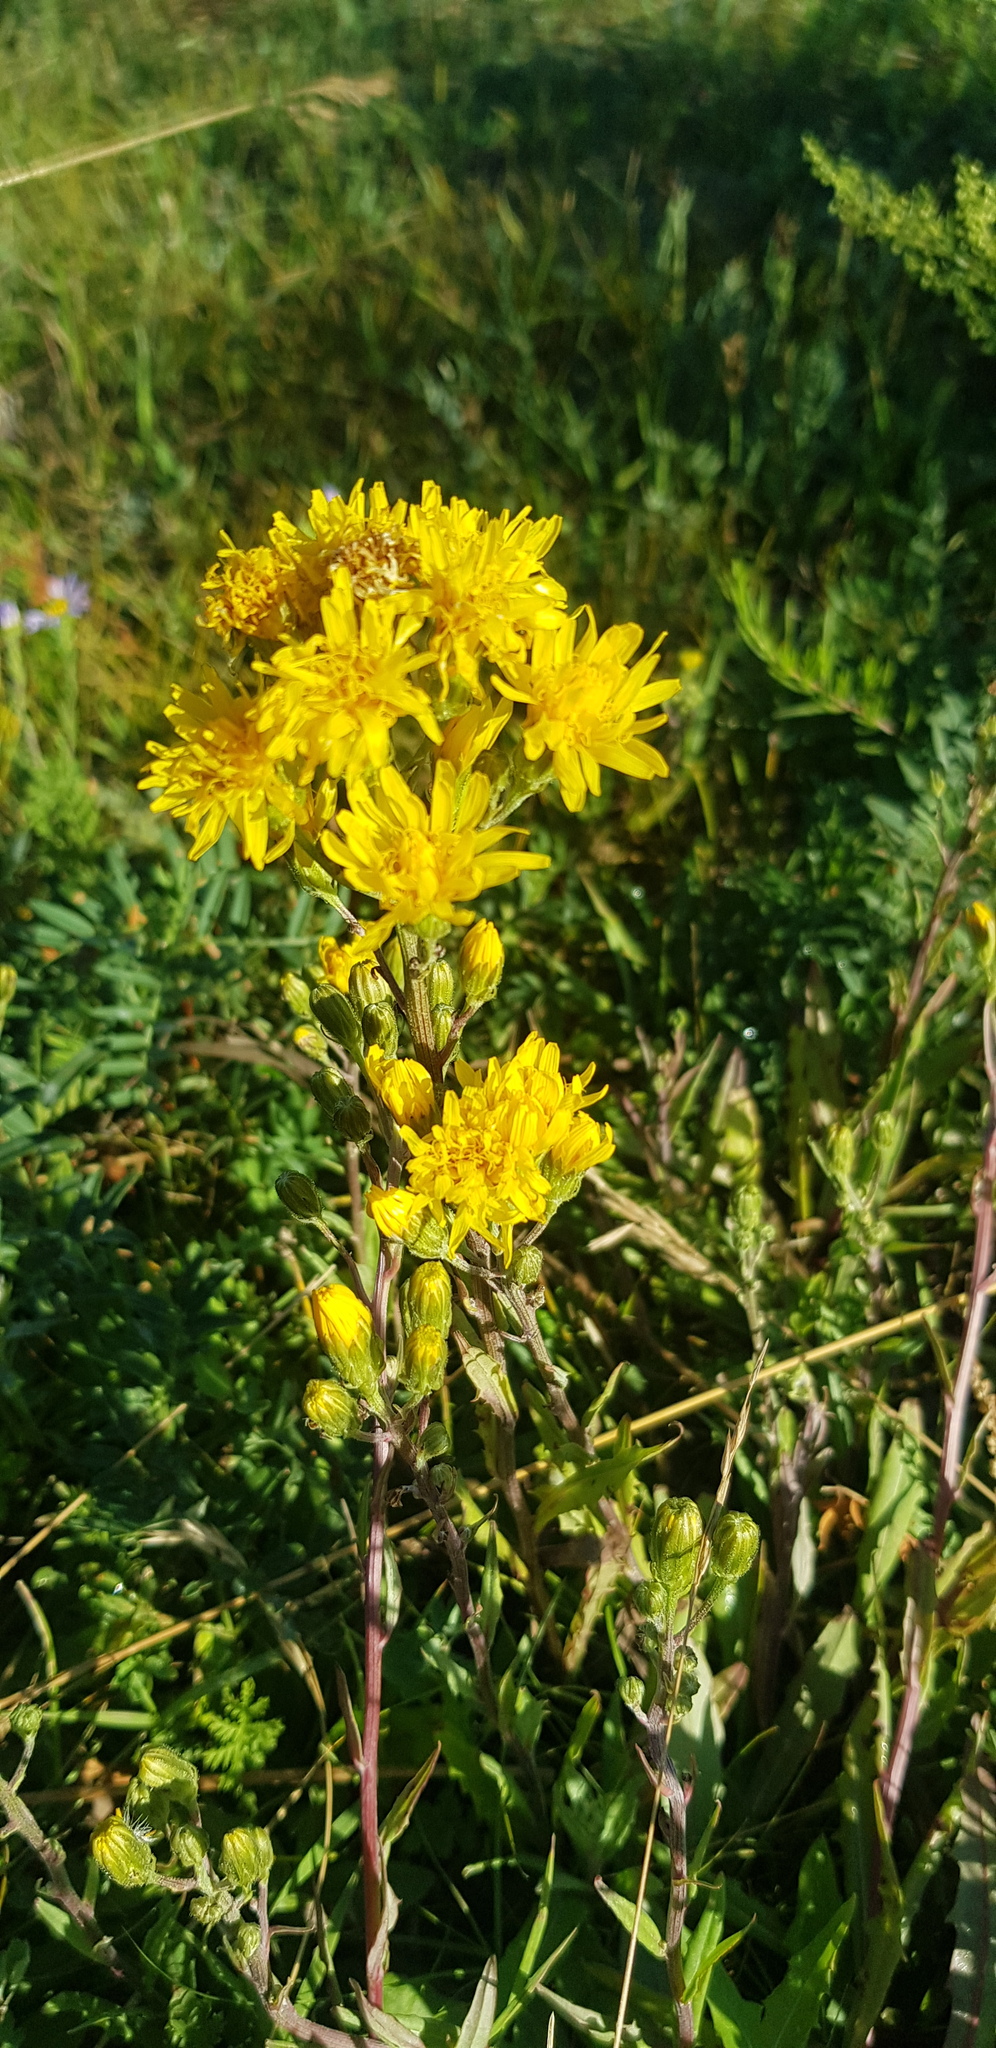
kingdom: Plantae
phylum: Tracheophyta
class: Magnoliopsida
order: Asterales
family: Asteraceae
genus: Hieracium
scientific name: Hieracium umbellatum
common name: Northern hawkweed
